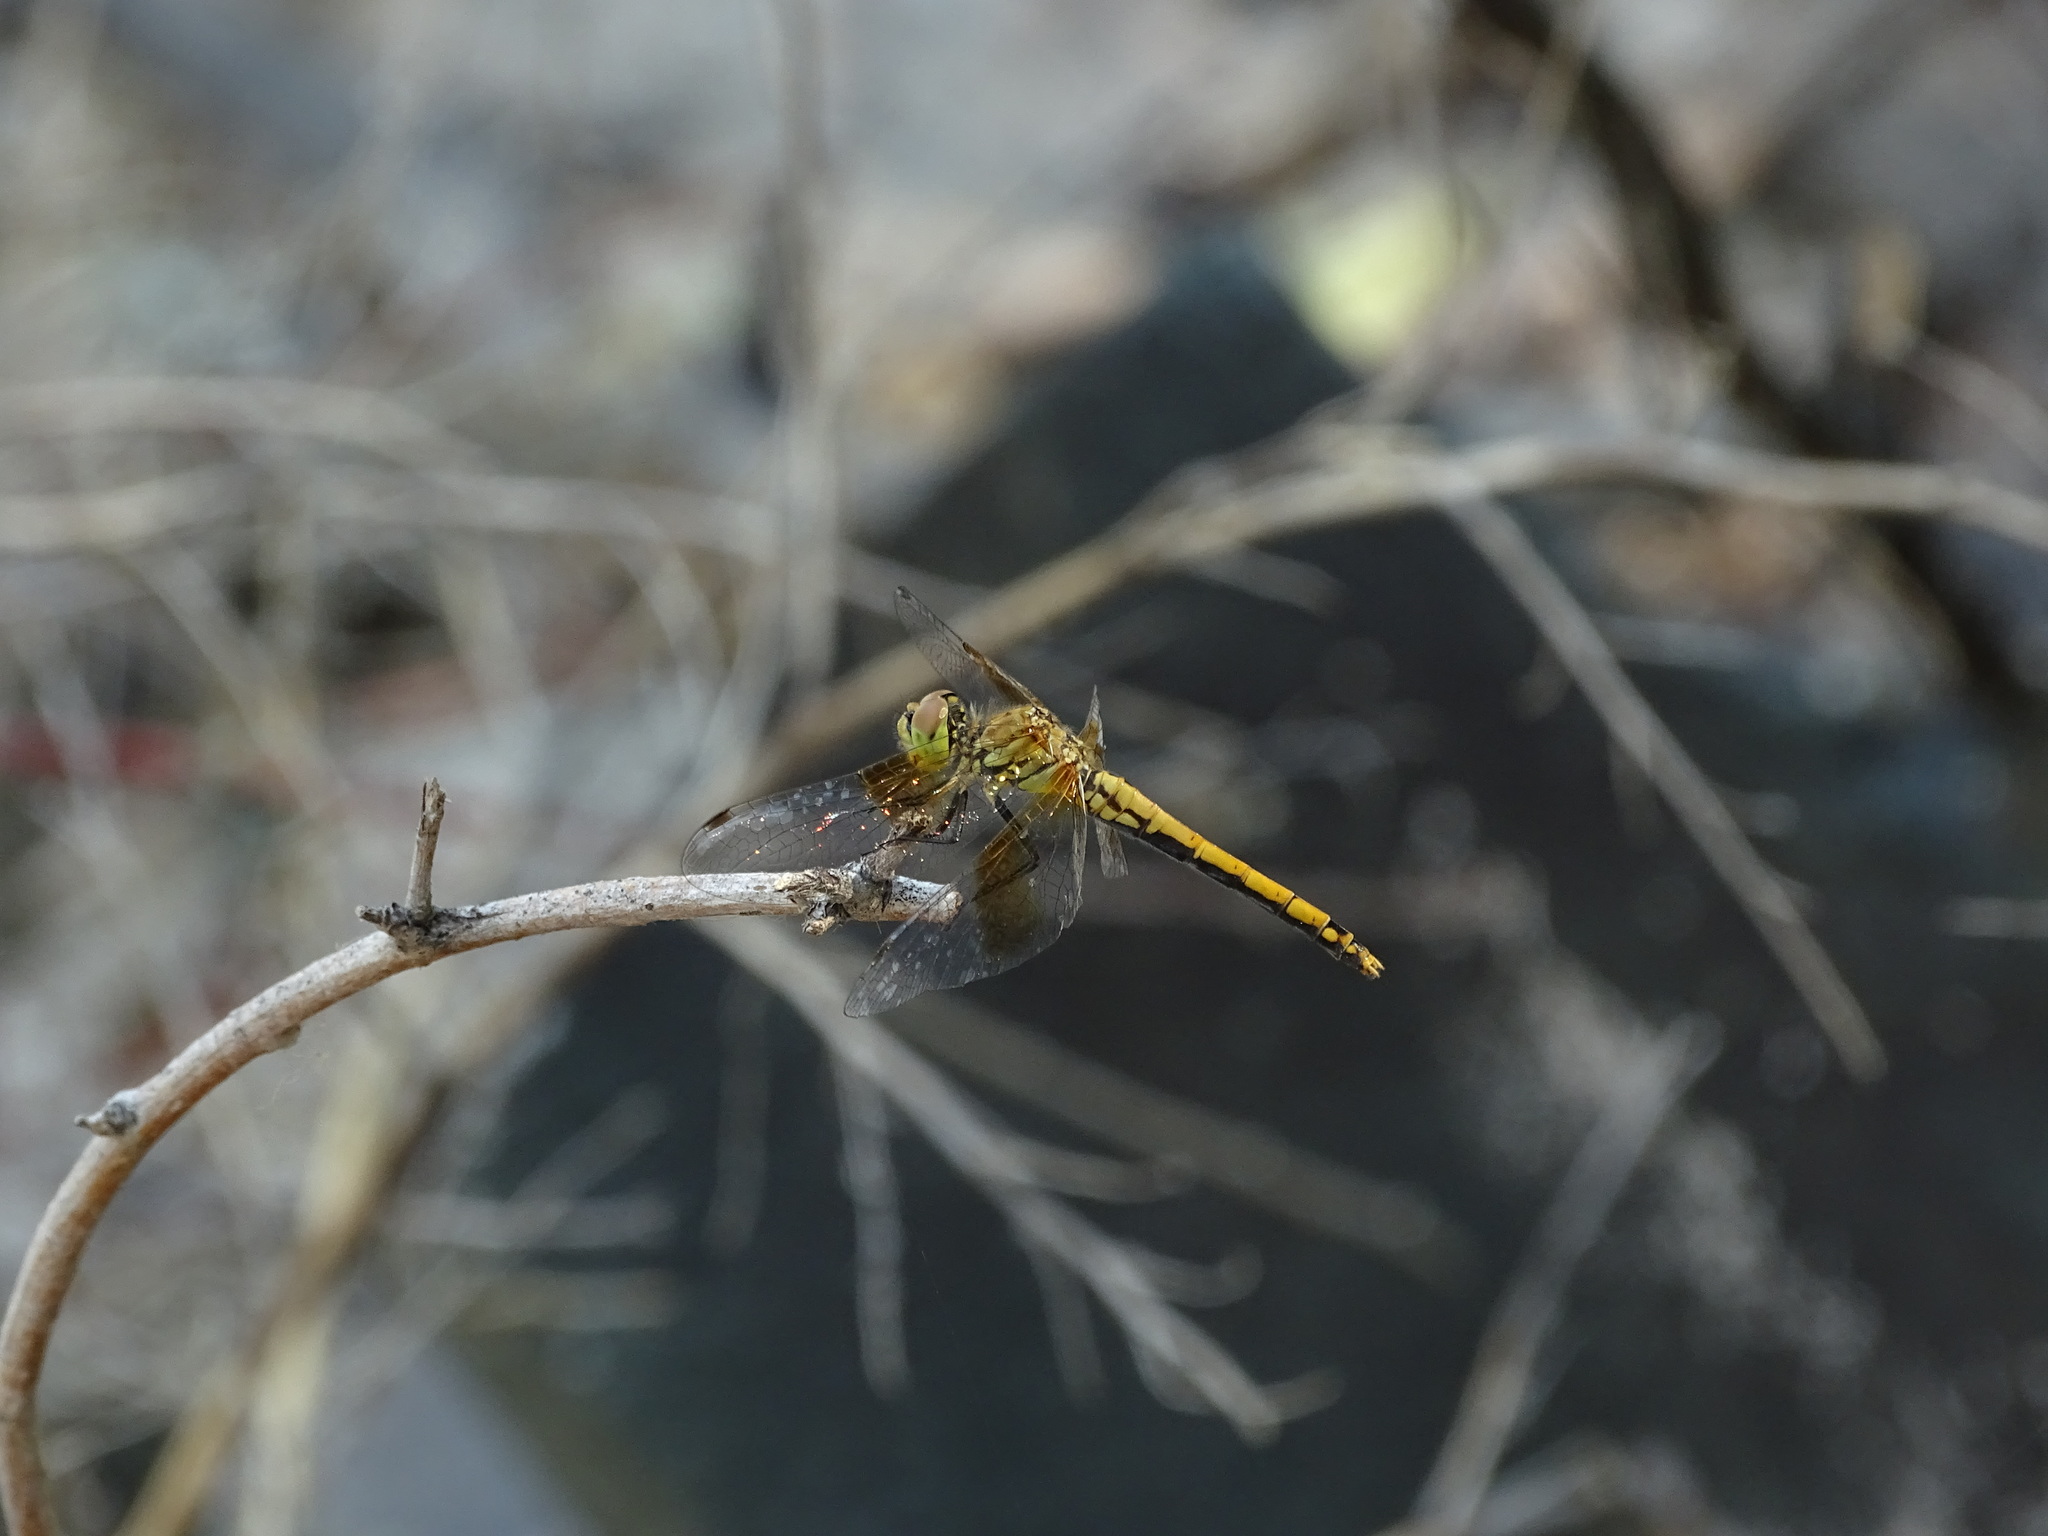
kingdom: Animalia
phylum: Arthropoda
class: Insecta
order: Odonata
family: Libellulidae
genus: Sympetrum
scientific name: Sympetrum semicinctum
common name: Band-winged meadowhawk
